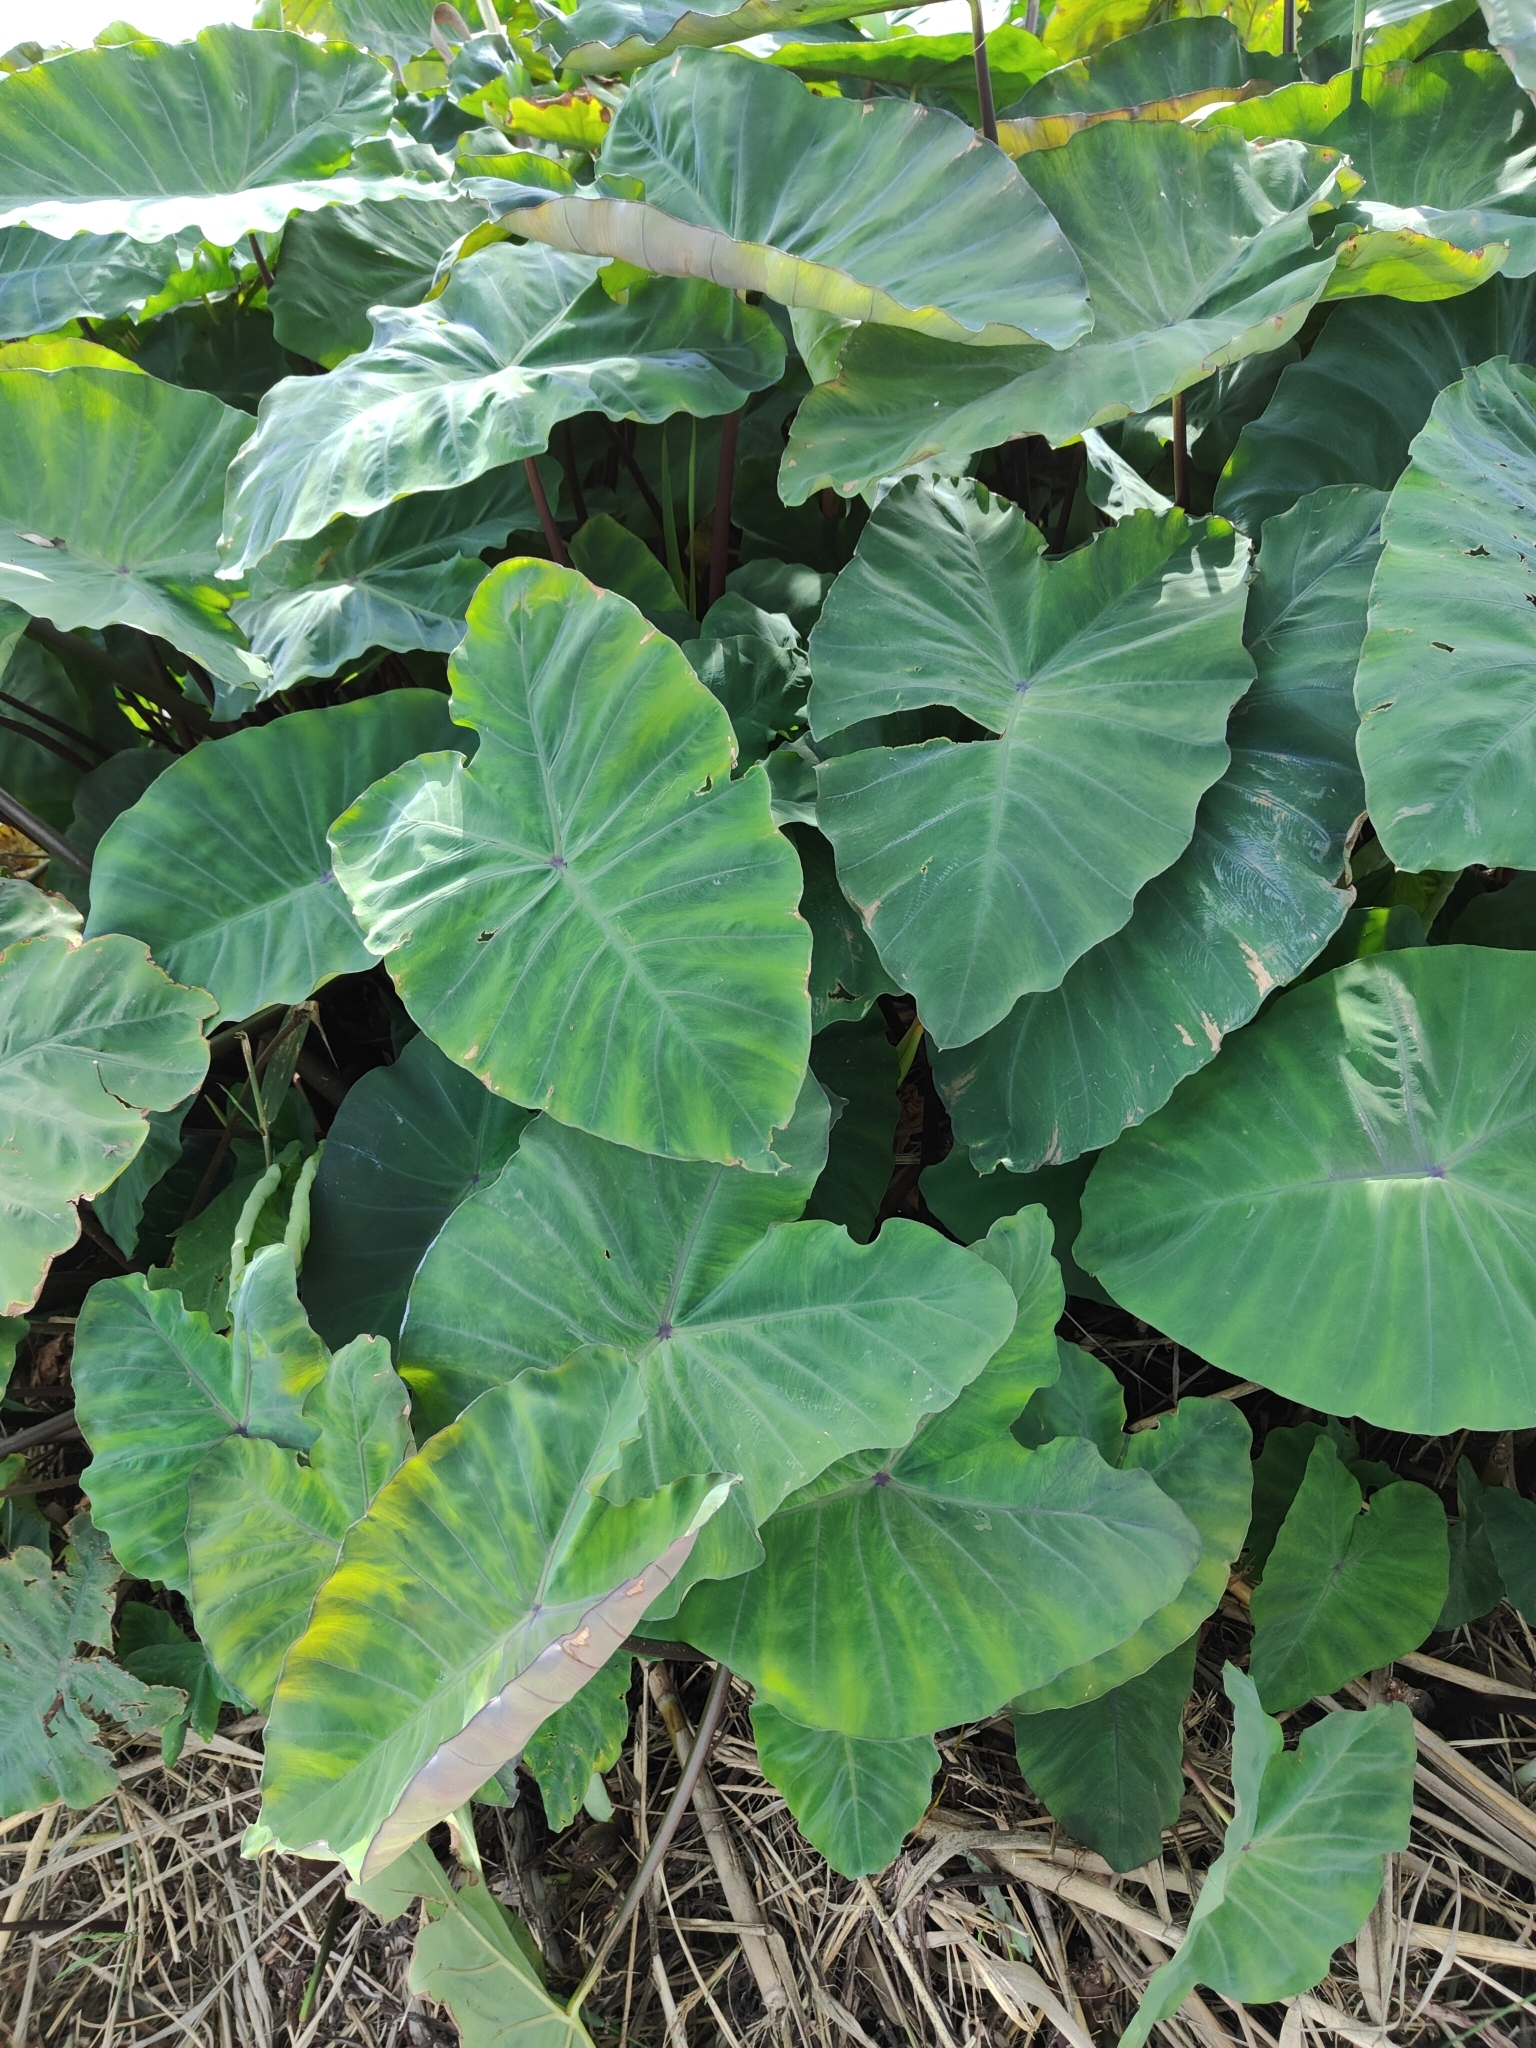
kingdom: Plantae
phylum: Tracheophyta
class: Liliopsida
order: Alismatales
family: Araceae
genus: Colocasia
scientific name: Colocasia esculenta
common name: Taro
